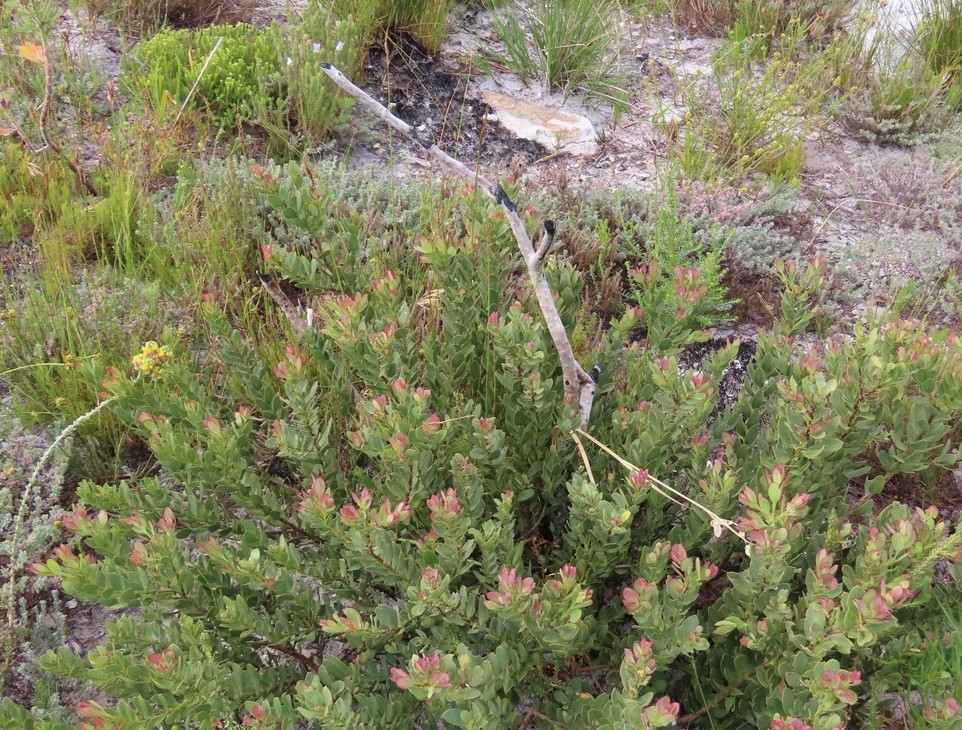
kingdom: Plantae
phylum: Tracheophyta
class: Magnoliopsida
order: Santalales
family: Santalaceae
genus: Osyris
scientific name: Osyris compressa
